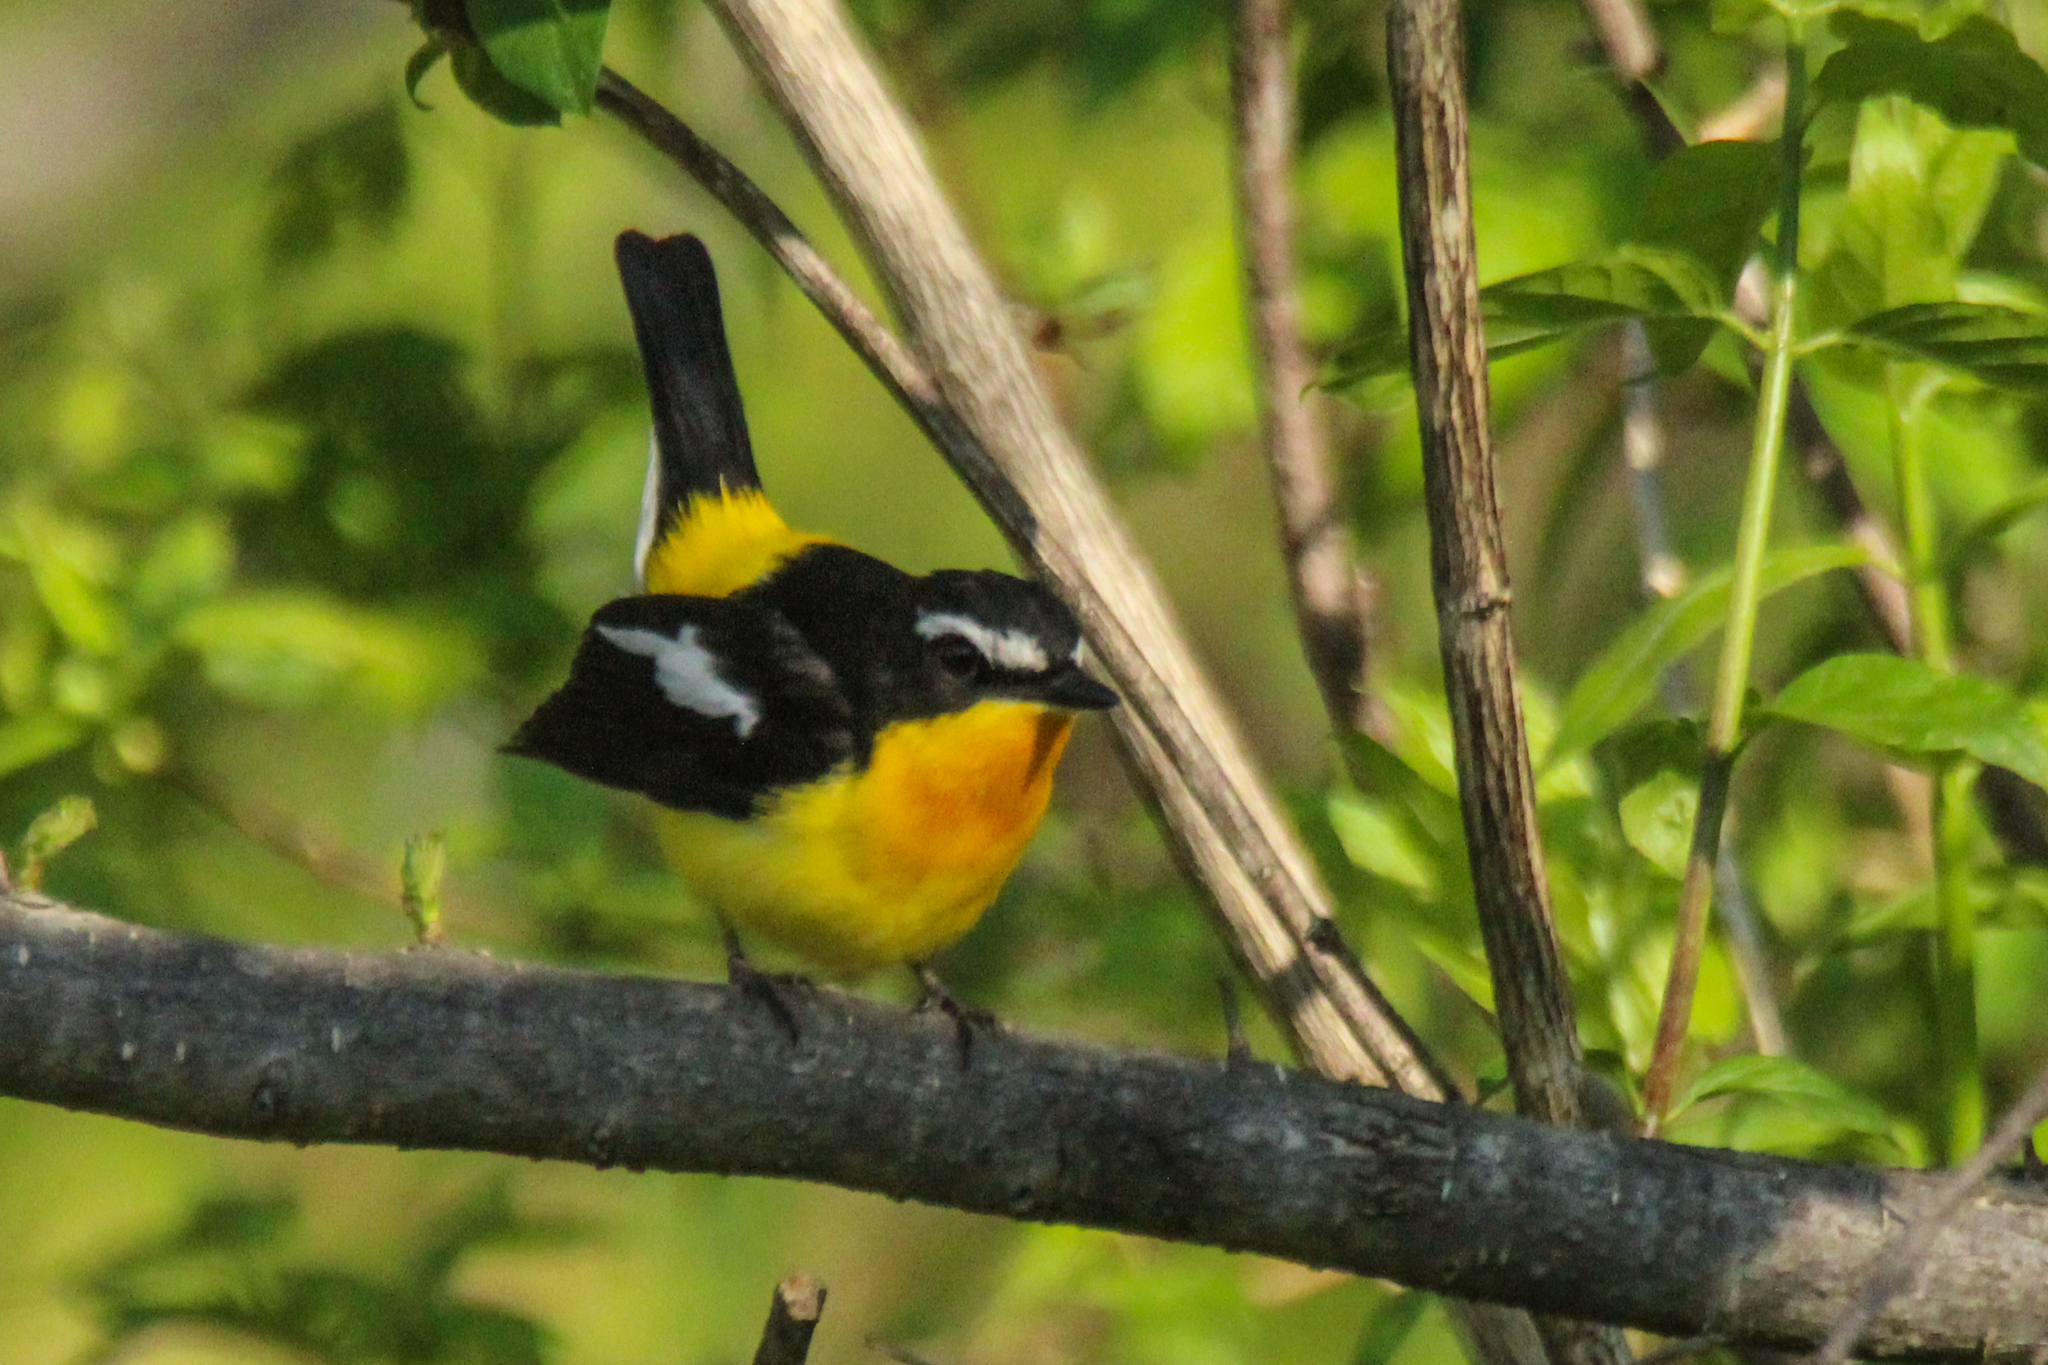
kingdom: Animalia
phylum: Chordata
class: Aves
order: Passeriformes
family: Muscicapidae
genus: Ficedula
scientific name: Ficedula zanthopygia
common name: Yellow-rumped flycatcher
